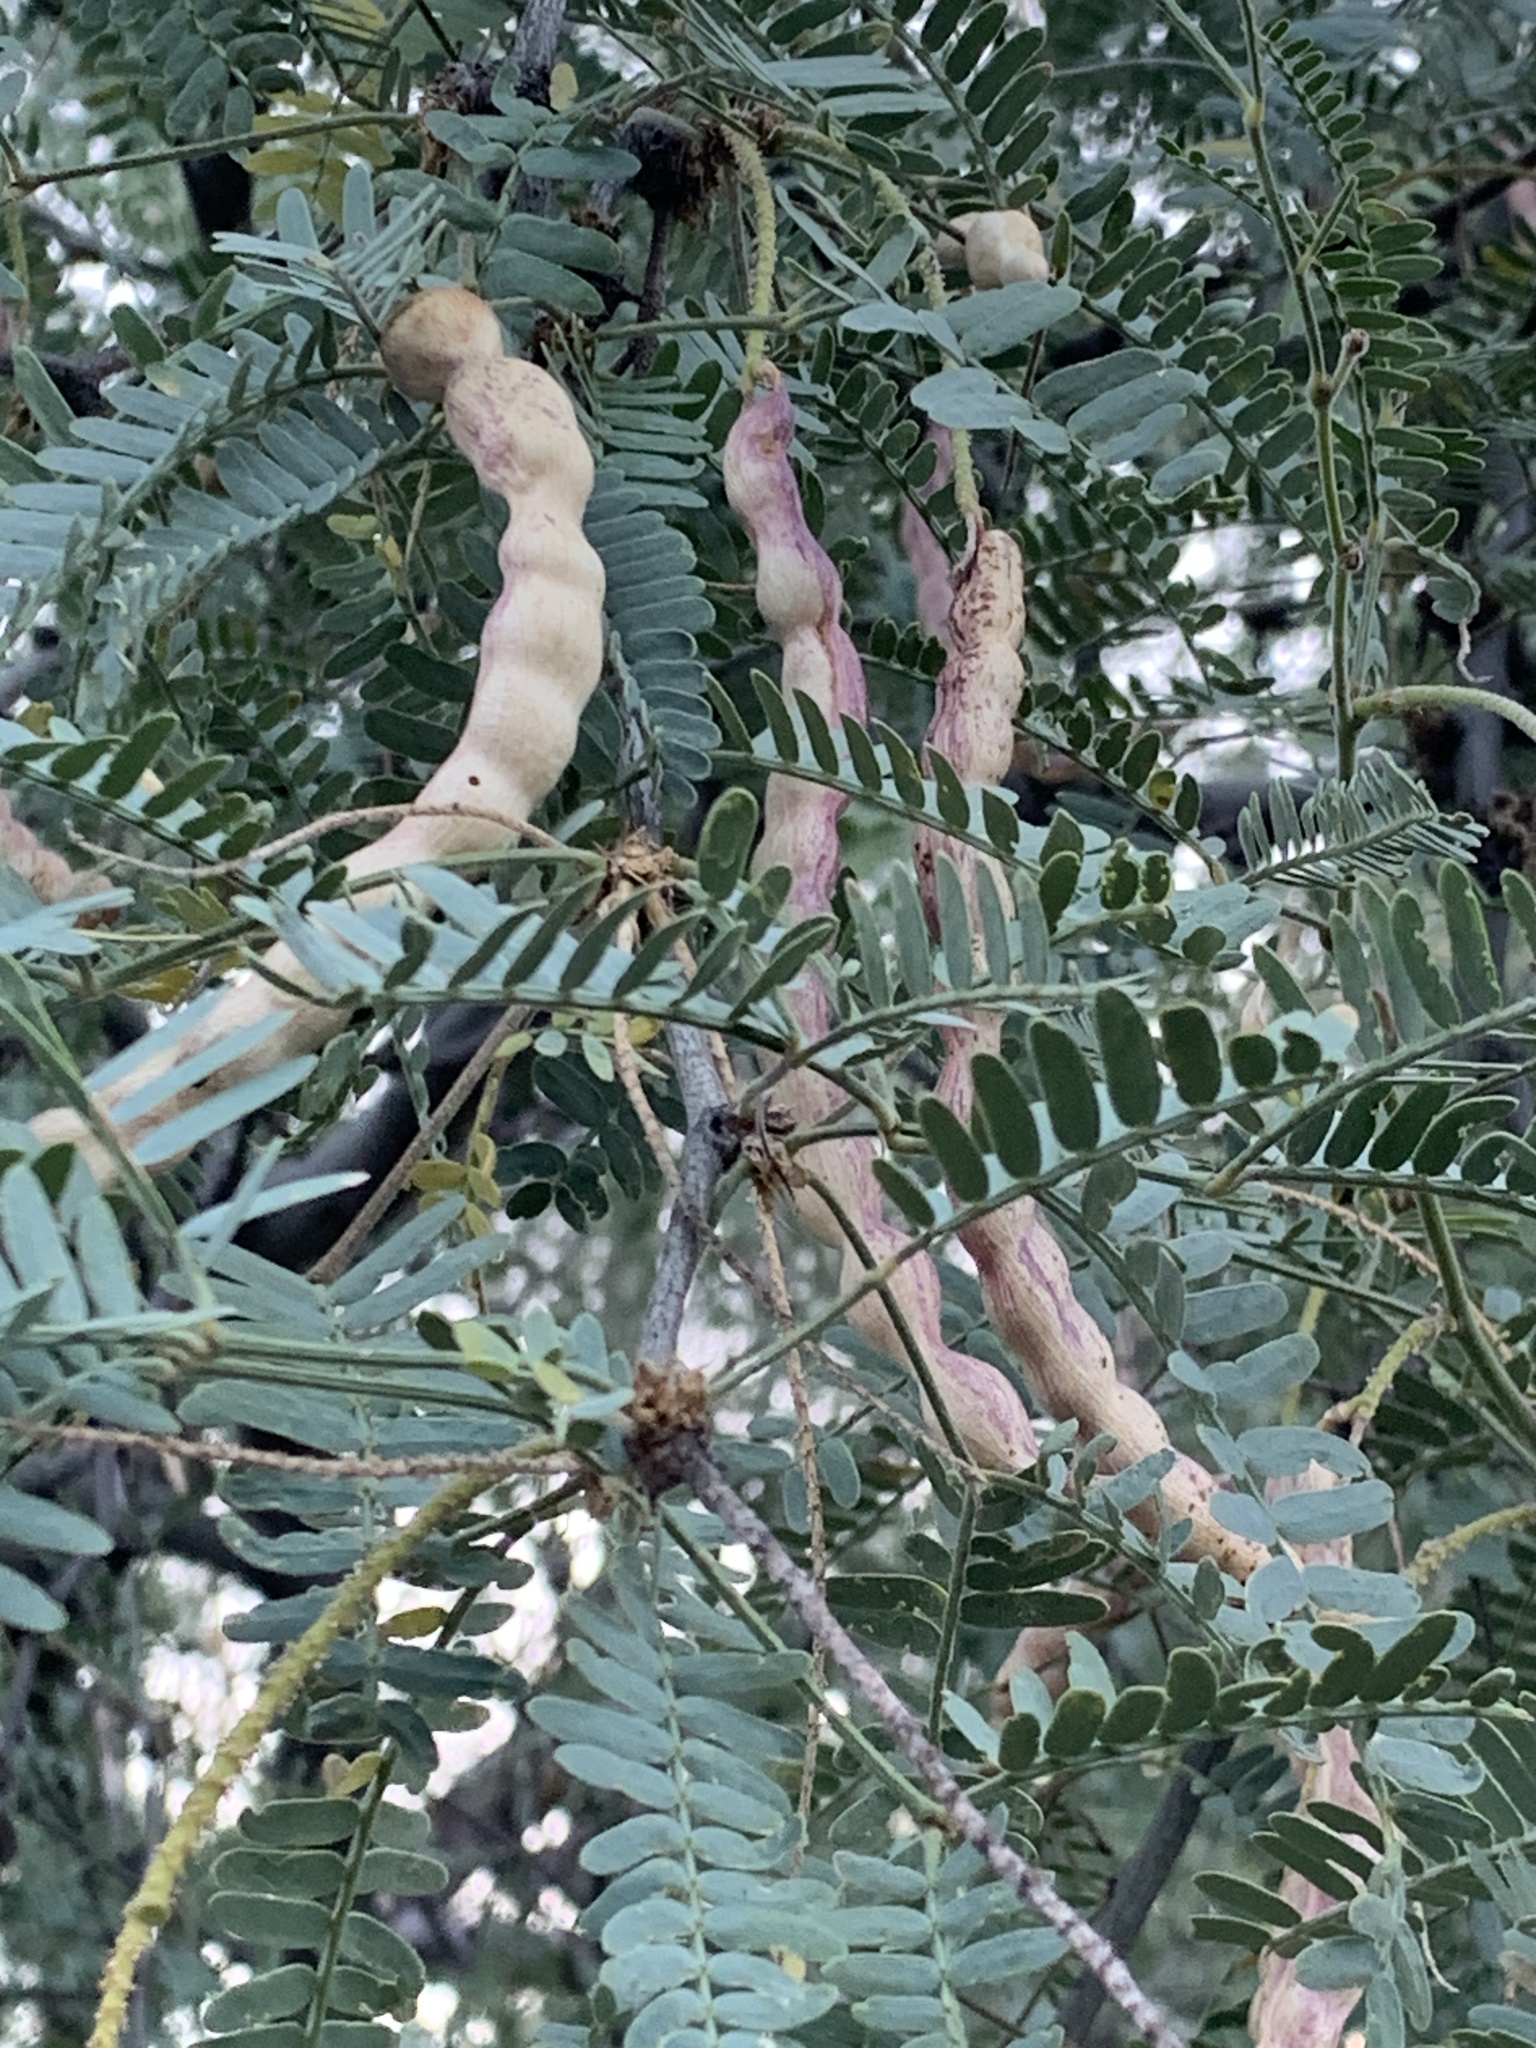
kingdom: Plantae
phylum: Tracheophyta
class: Magnoliopsida
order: Fabales
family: Fabaceae
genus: Prosopis
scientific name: Prosopis velutina
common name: Velvet mesquite
